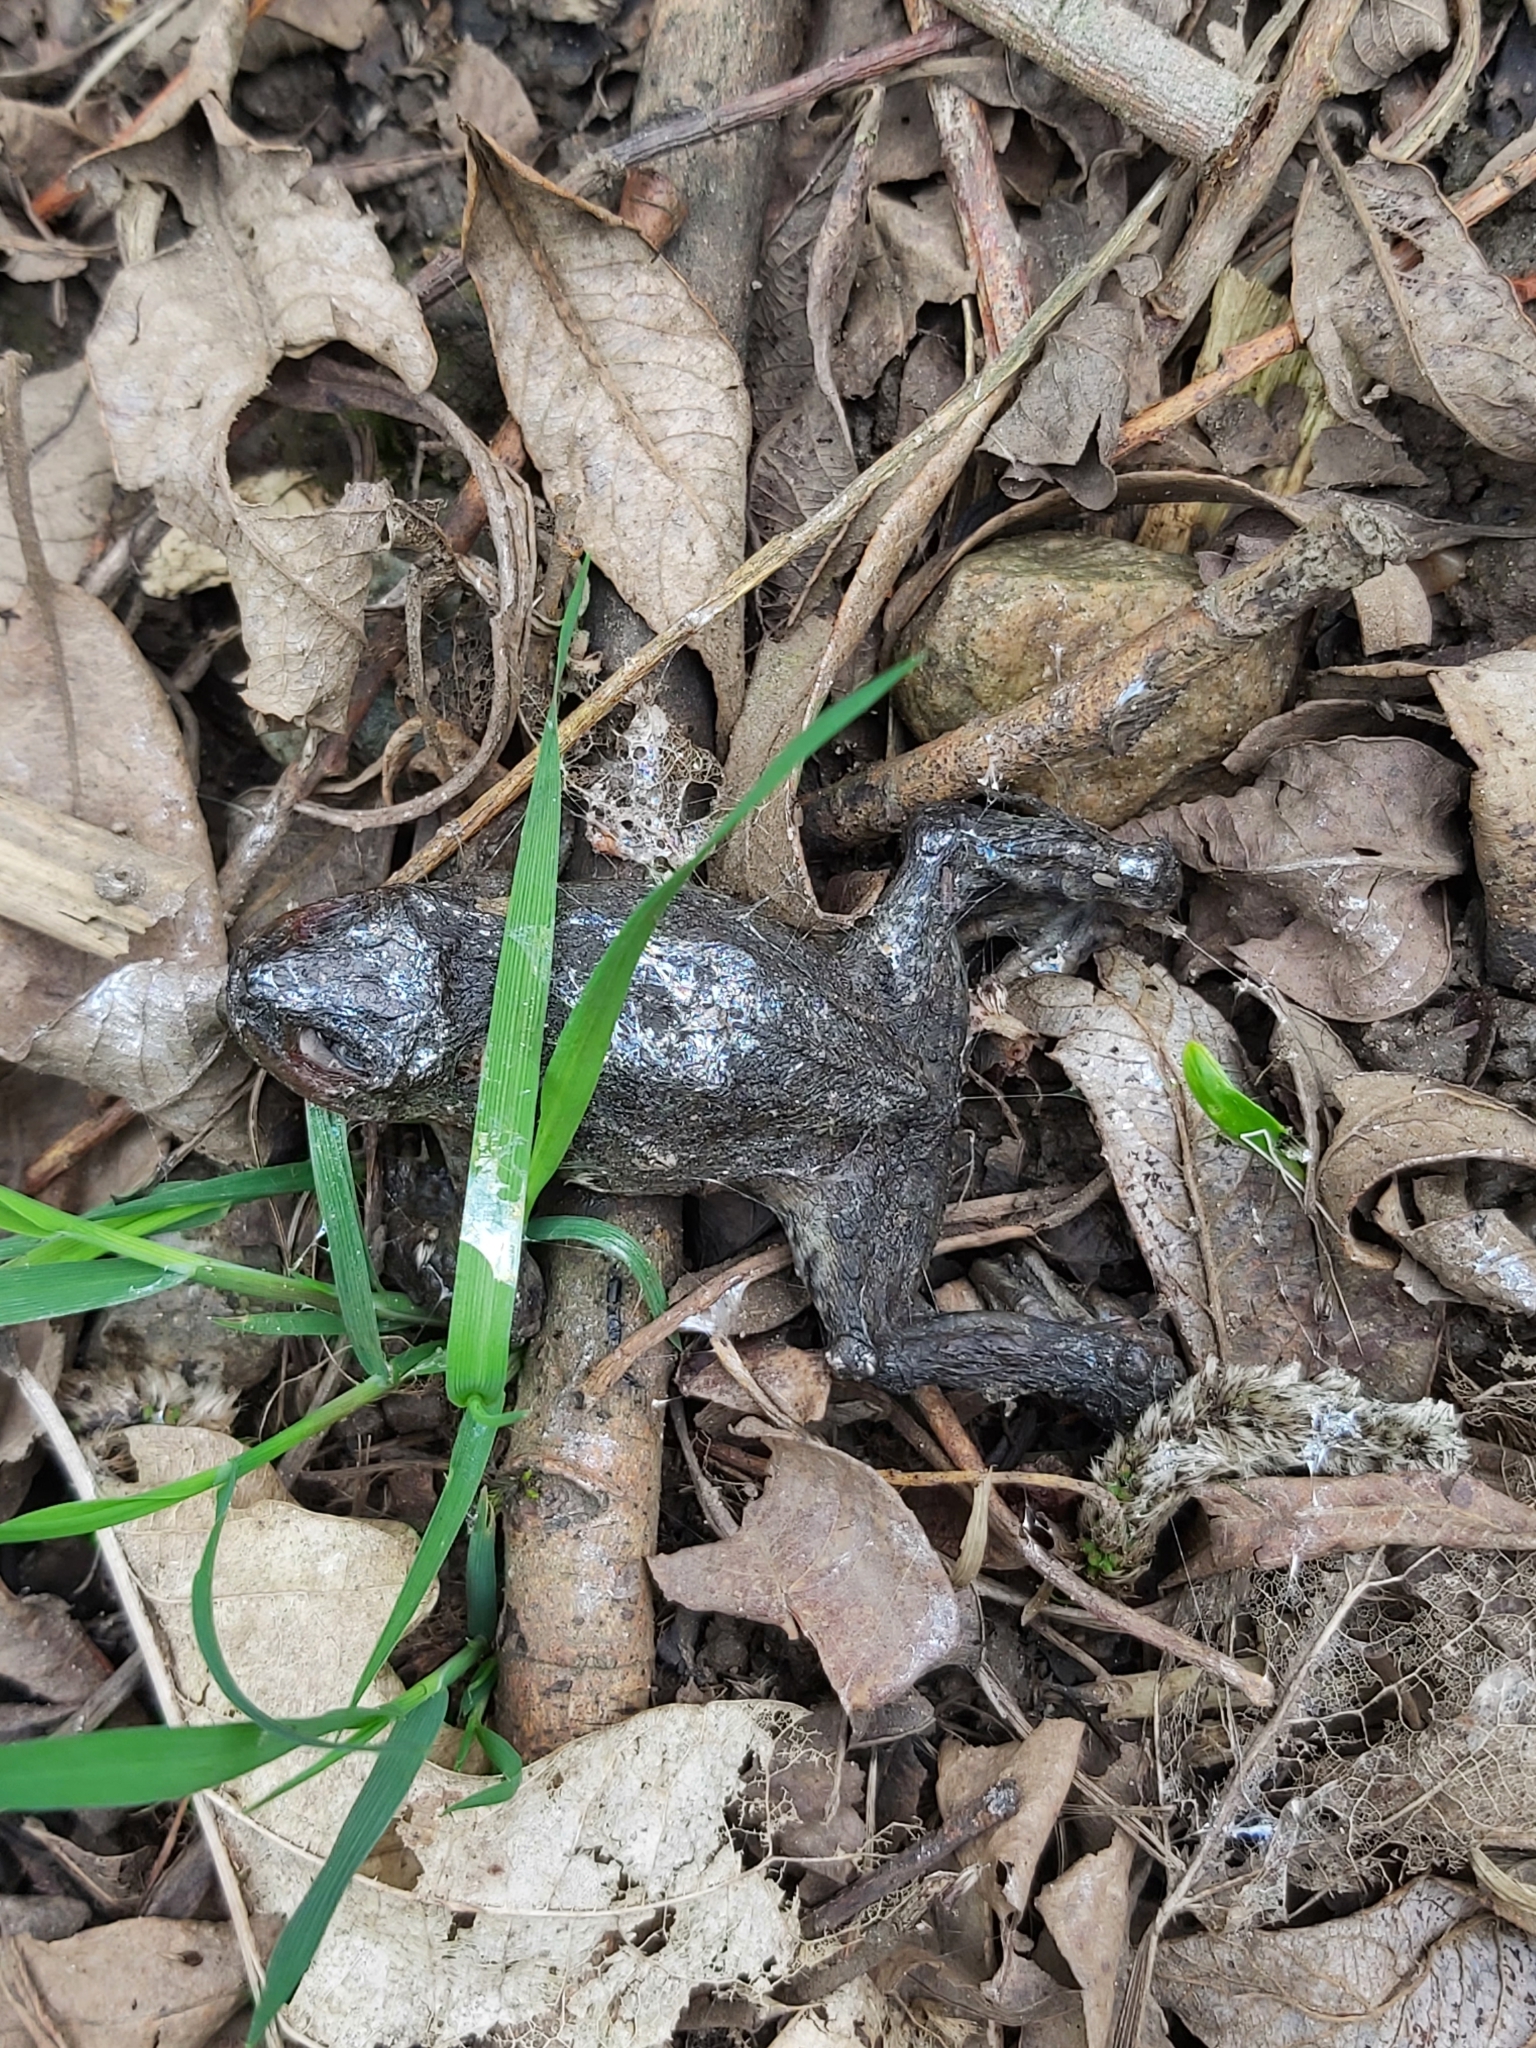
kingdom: Animalia
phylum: Chordata
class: Amphibia
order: Anura
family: Bufonidae
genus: Bufo
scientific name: Bufo bufo
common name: Common toad
